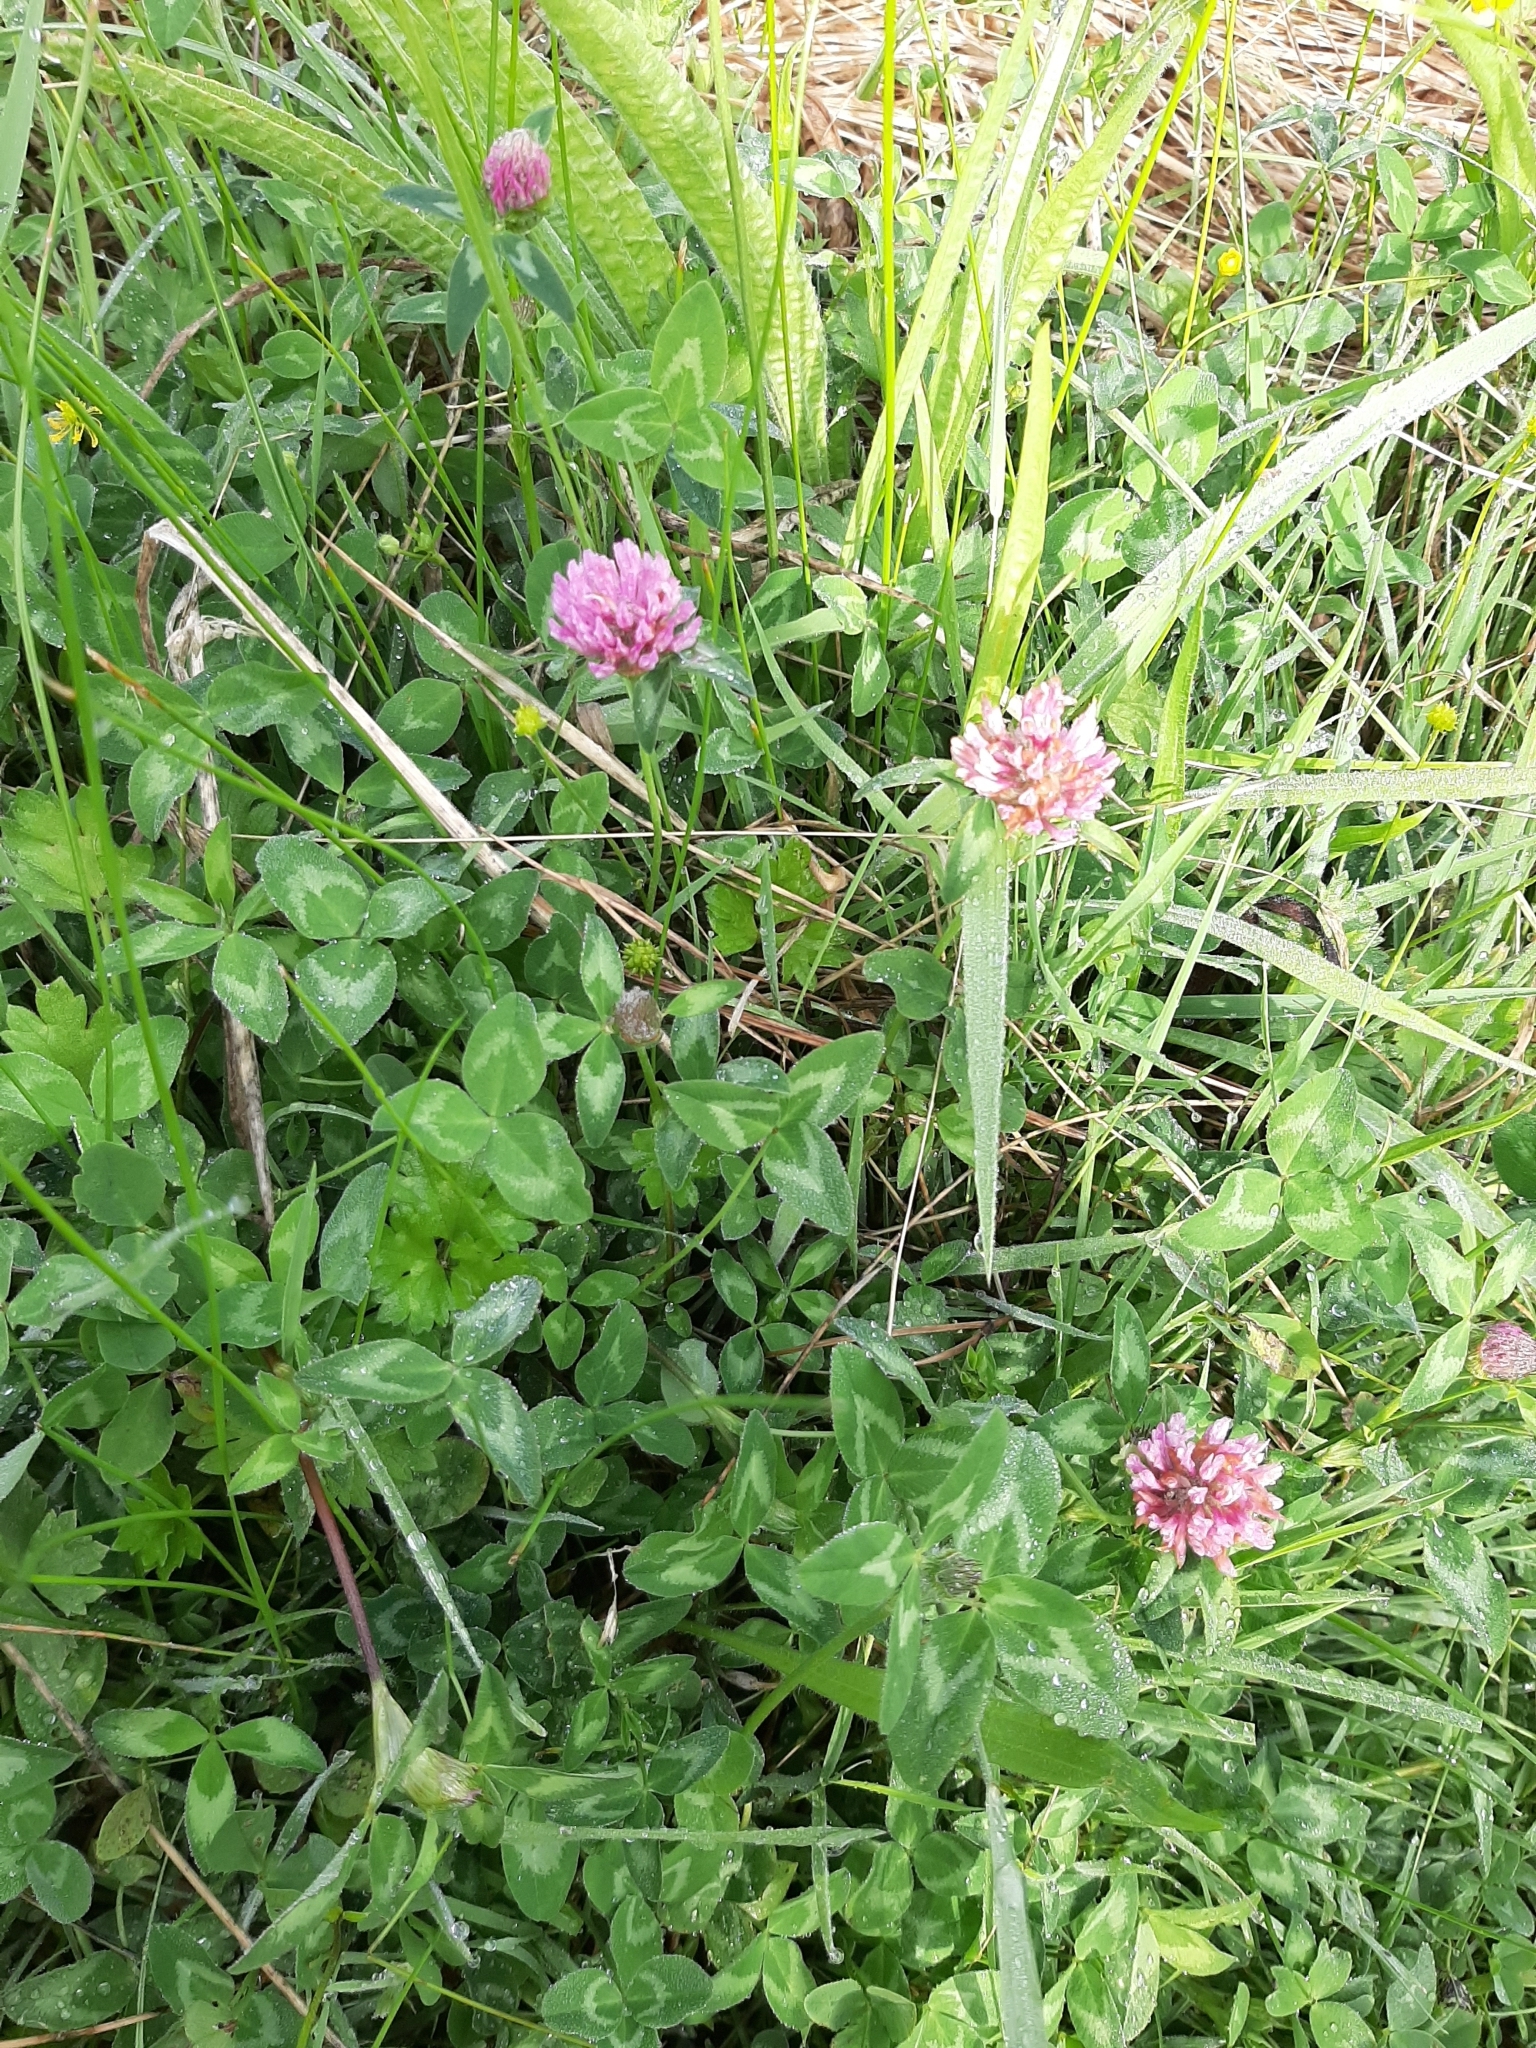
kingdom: Plantae
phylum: Tracheophyta
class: Magnoliopsida
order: Fabales
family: Fabaceae
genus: Trifolium
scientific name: Trifolium pratense
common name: Red clover
